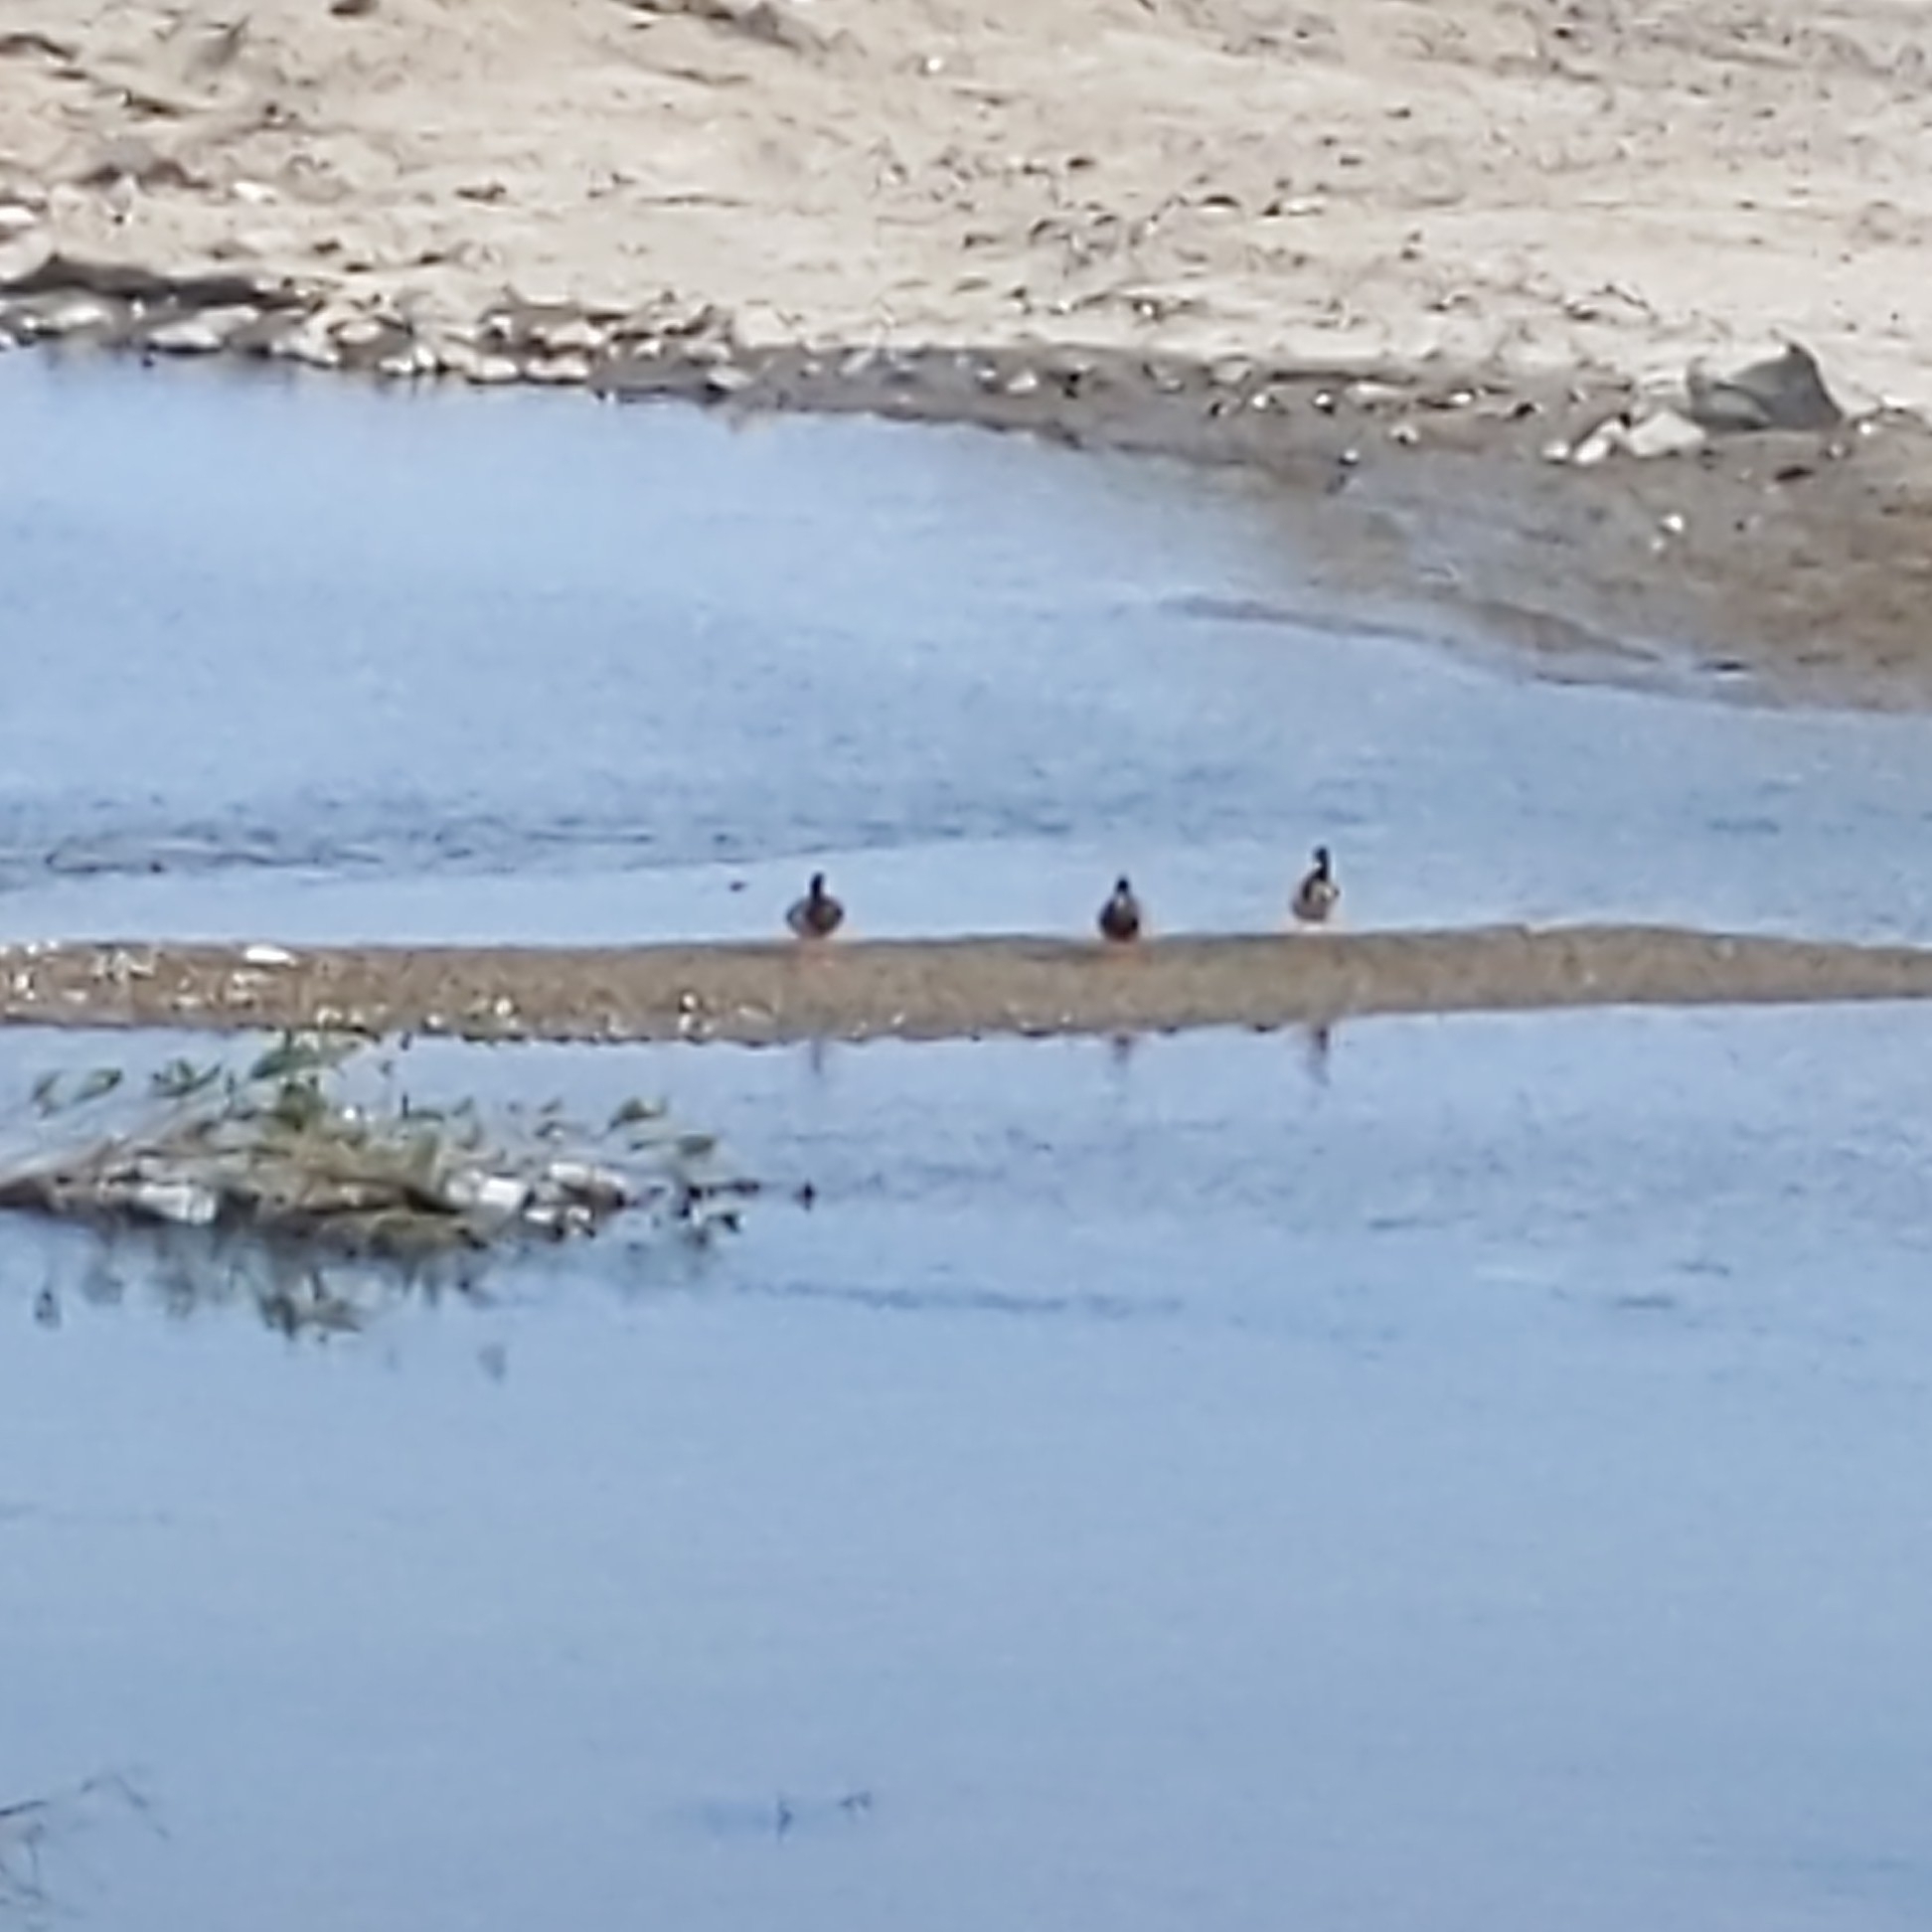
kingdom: Animalia
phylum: Chordata
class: Aves
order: Anseriformes
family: Anatidae
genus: Anas
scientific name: Anas platyrhynchos
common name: Mallard
